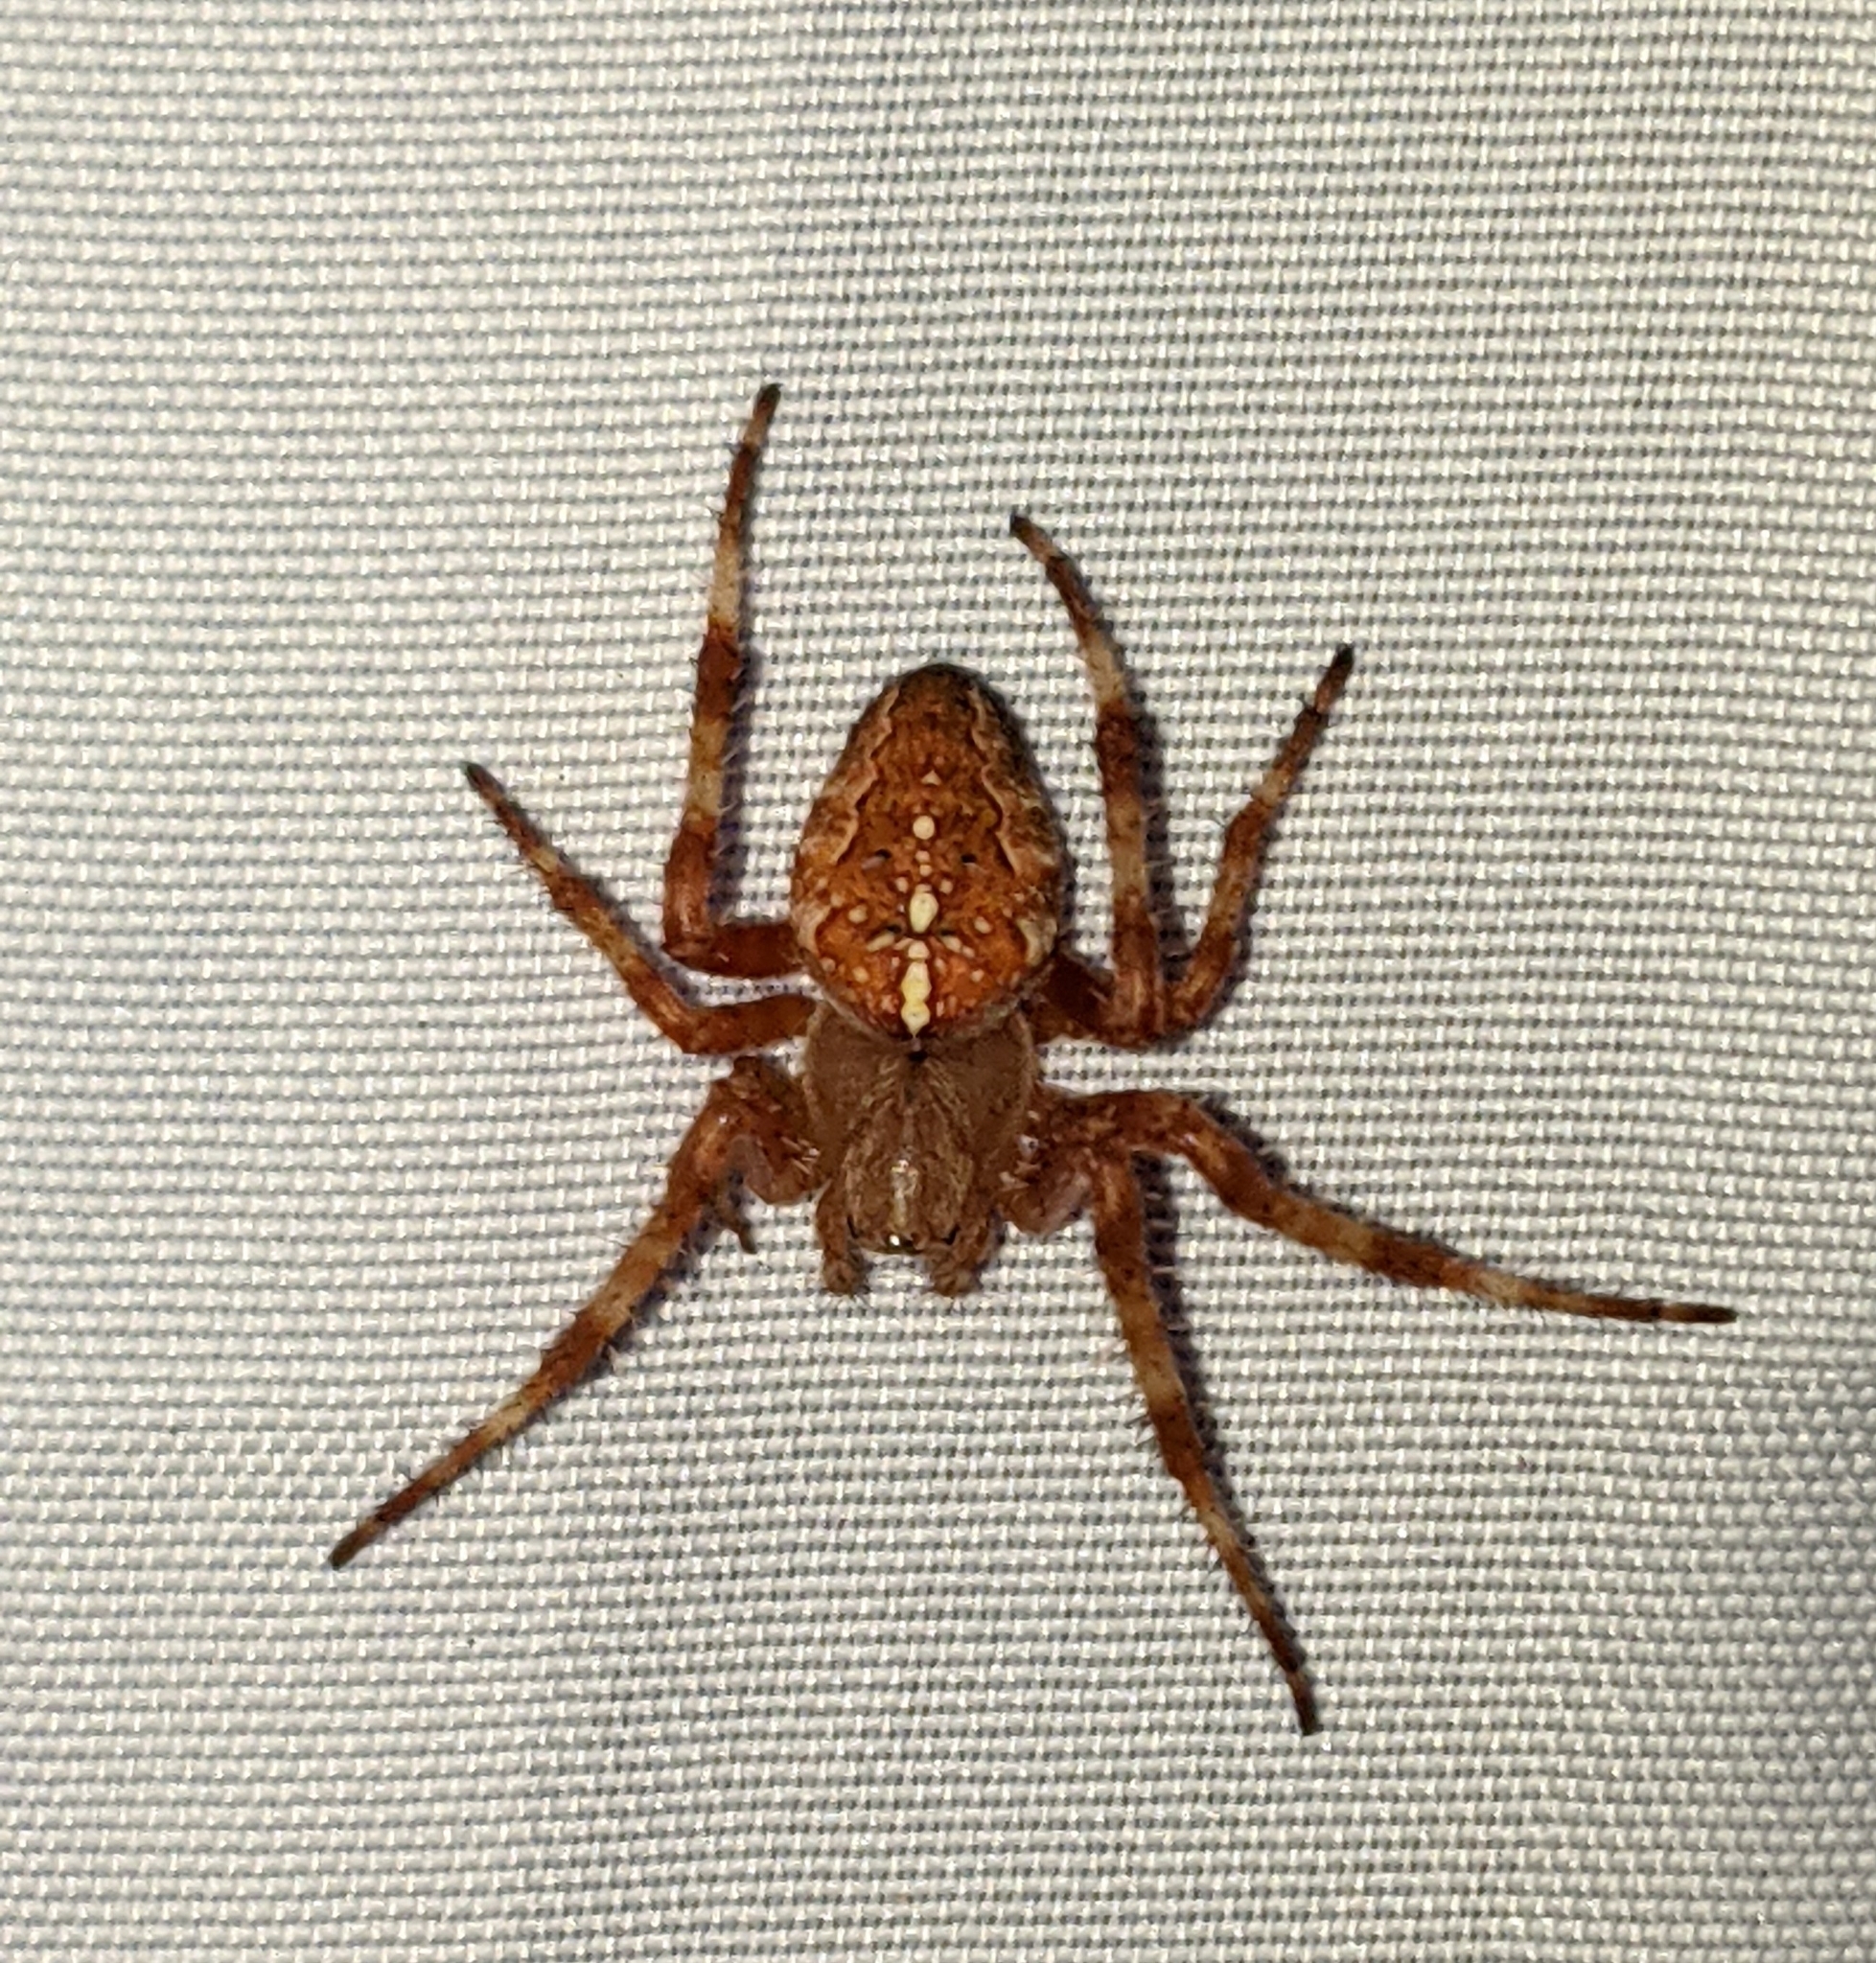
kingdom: Animalia
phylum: Arthropoda
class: Arachnida
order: Araneae
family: Araneidae
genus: Araneus
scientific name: Araneus diadematus
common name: Cross orbweaver
